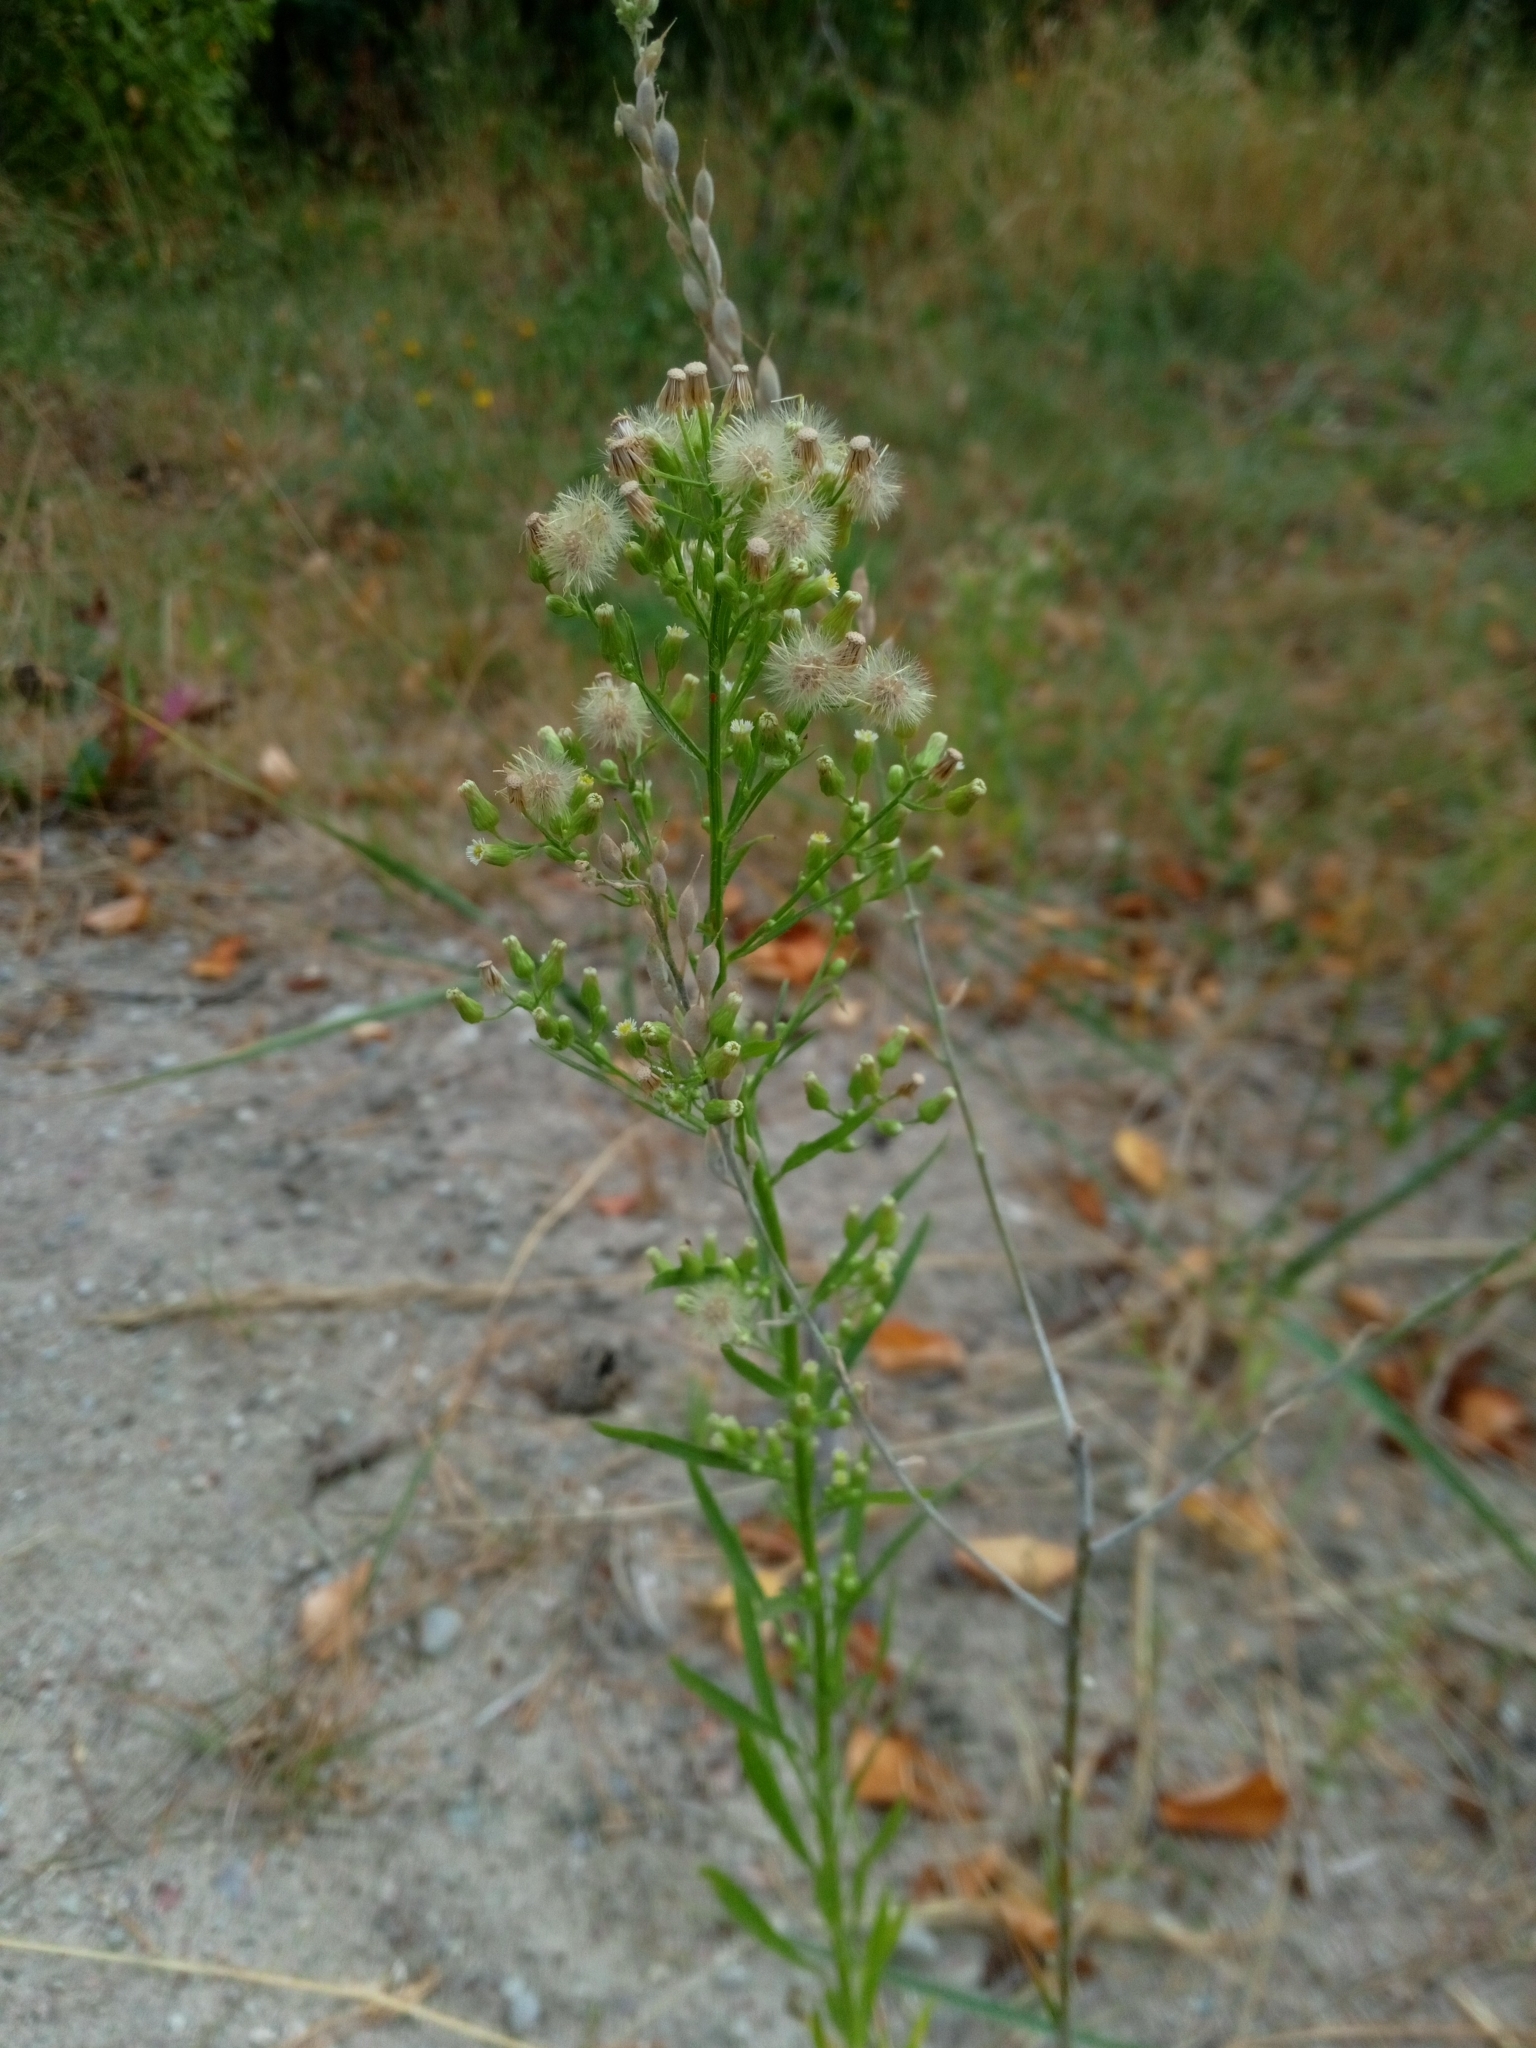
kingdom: Plantae
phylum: Tracheophyta
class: Magnoliopsida
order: Asterales
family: Asteraceae
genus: Erigeron
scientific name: Erigeron canadensis
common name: Canadian fleabane
